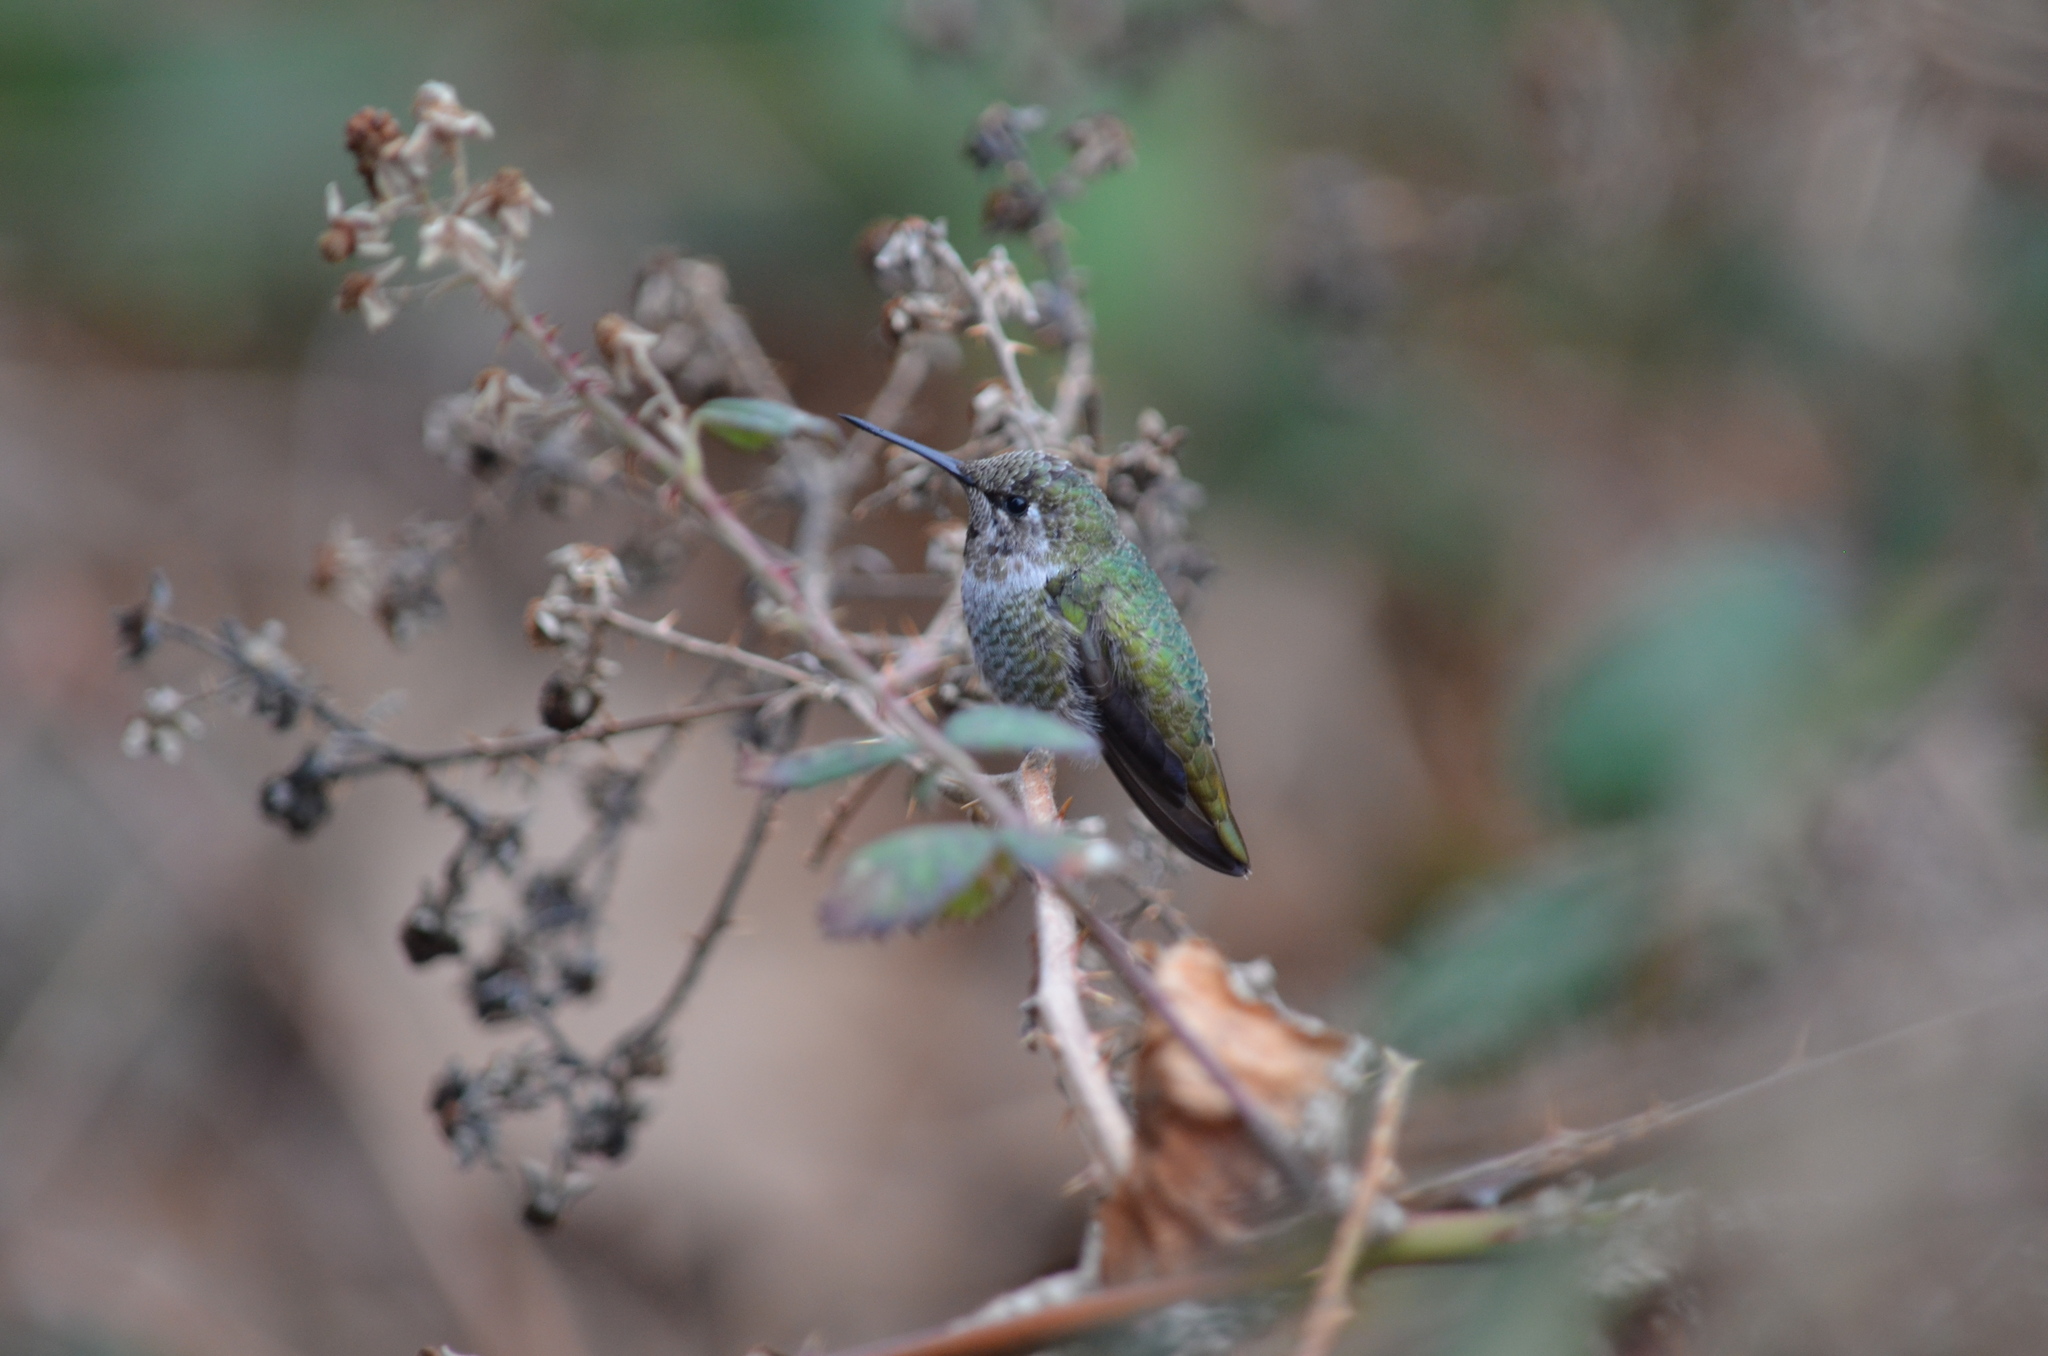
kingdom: Animalia
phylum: Chordata
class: Aves
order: Apodiformes
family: Trochilidae
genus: Calypte
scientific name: Calypte anna
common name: Anna's hummingbird
